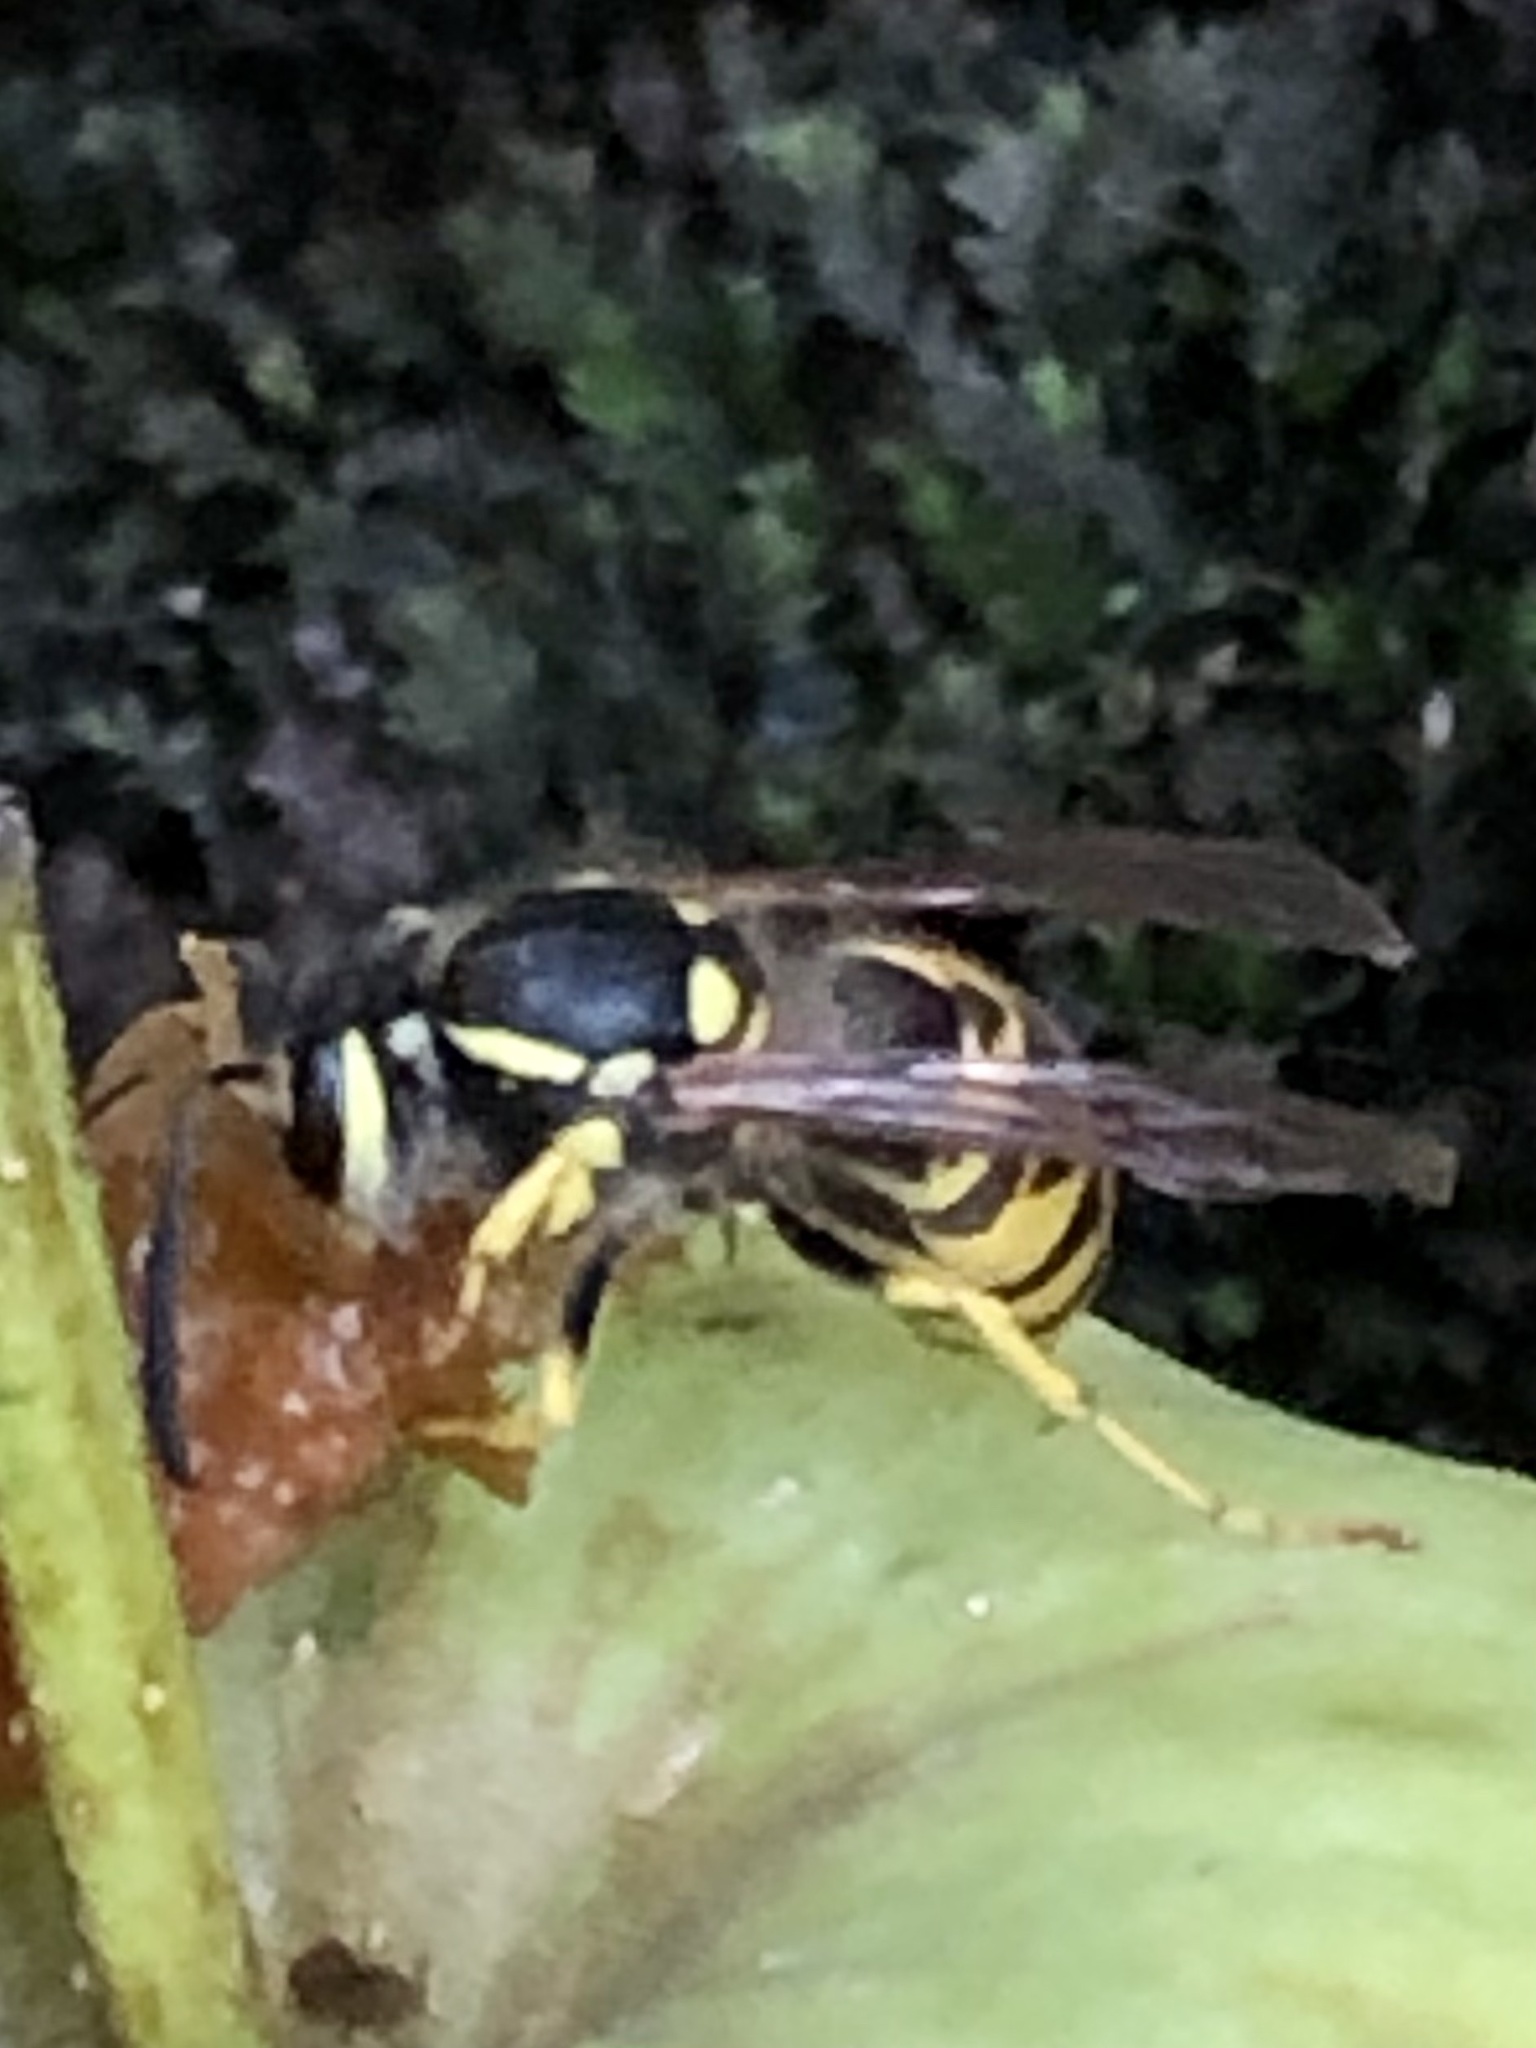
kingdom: Animalia
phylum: Arthropoda
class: Insecta
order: Hymenoptera
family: Vespidae
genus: Vespula
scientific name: Vespula germanica
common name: German wasp
